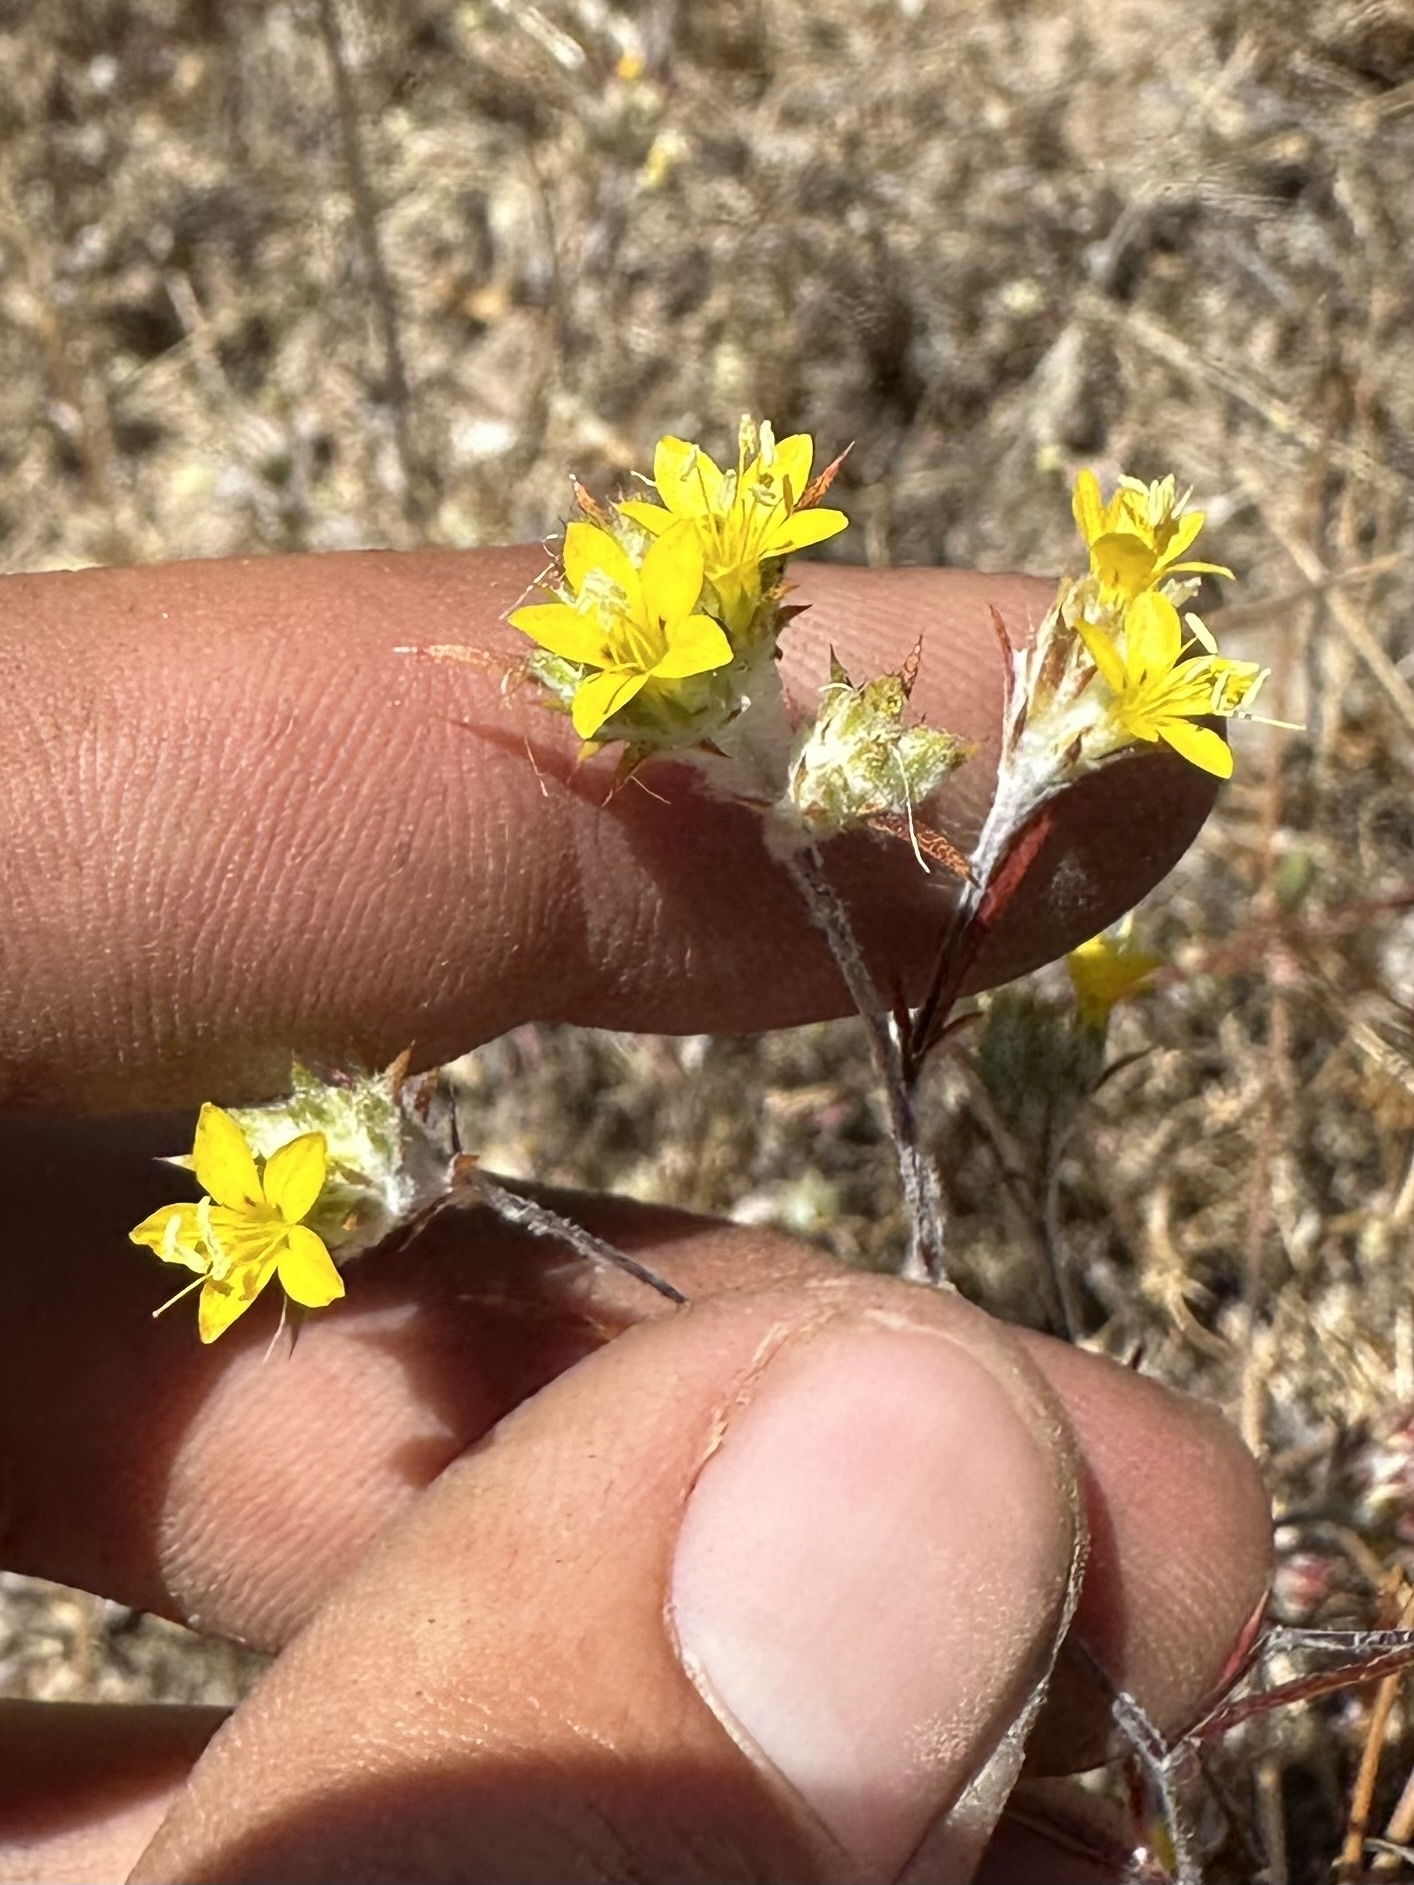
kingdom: Plantae
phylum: Tracheophyta
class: Magnoliopsida
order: Ericales
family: Polemoniaceae
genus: Eriastrum
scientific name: Eriastrum luteum
